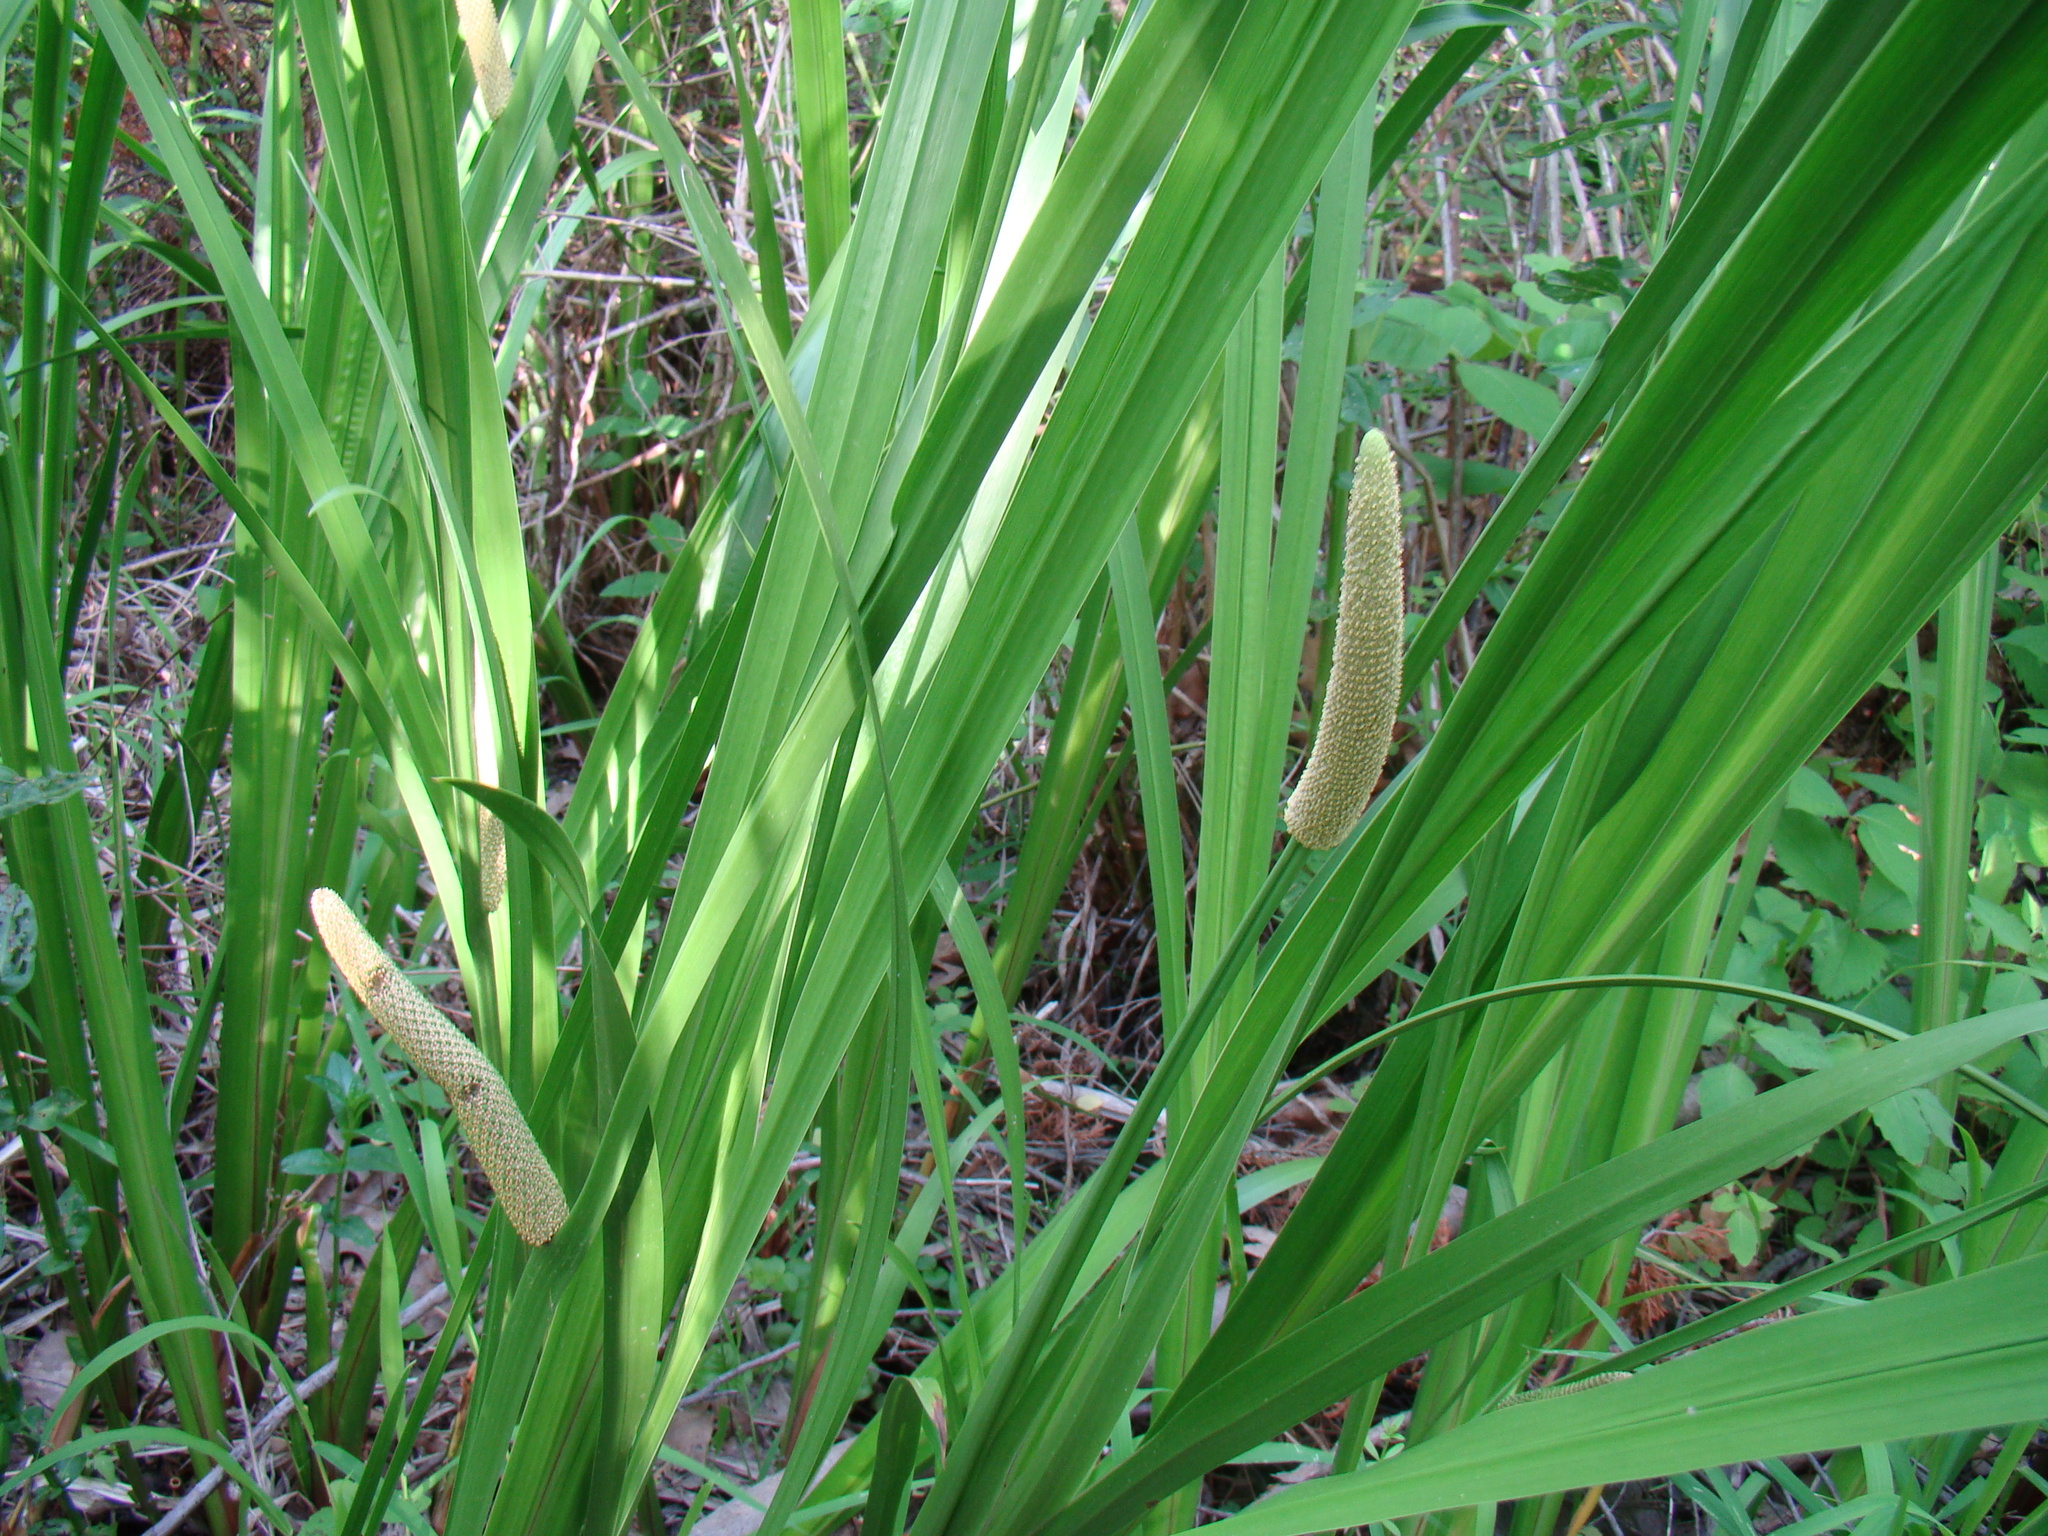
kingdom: Plantae
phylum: Tracheophyta
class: Liliopsida
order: Acorales
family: Acoraceae
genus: Acorus
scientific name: Acorus calamus
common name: Sweet-flag
